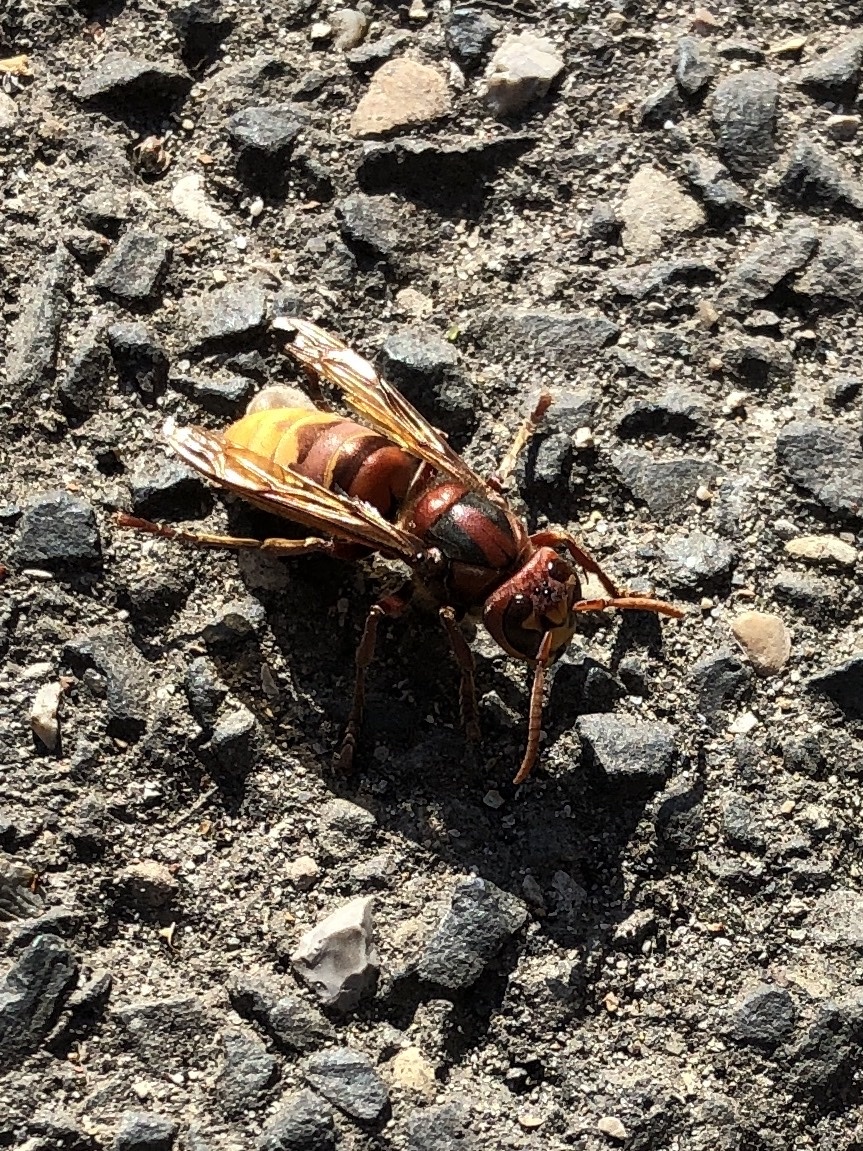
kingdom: Animalia
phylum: Arthropoda
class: Insecta
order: Hymenoptera
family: Vespidae
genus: Vespa
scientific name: Vespa crabro
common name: Hornet
